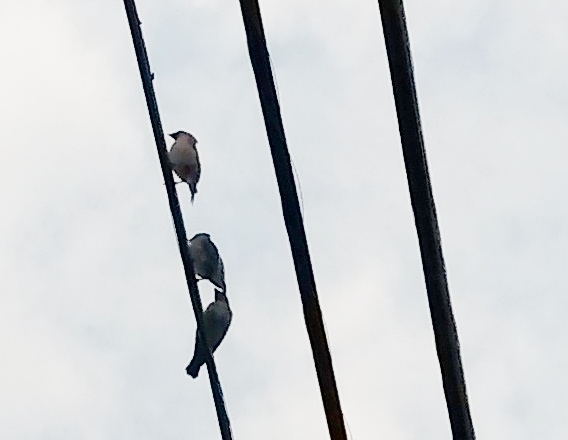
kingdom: Animalia
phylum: Chordata
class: Aves
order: Passeriformes
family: Bombycillidae
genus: Bombycilla
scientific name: Bombycilla cedrorum
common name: Cedar waxwing
